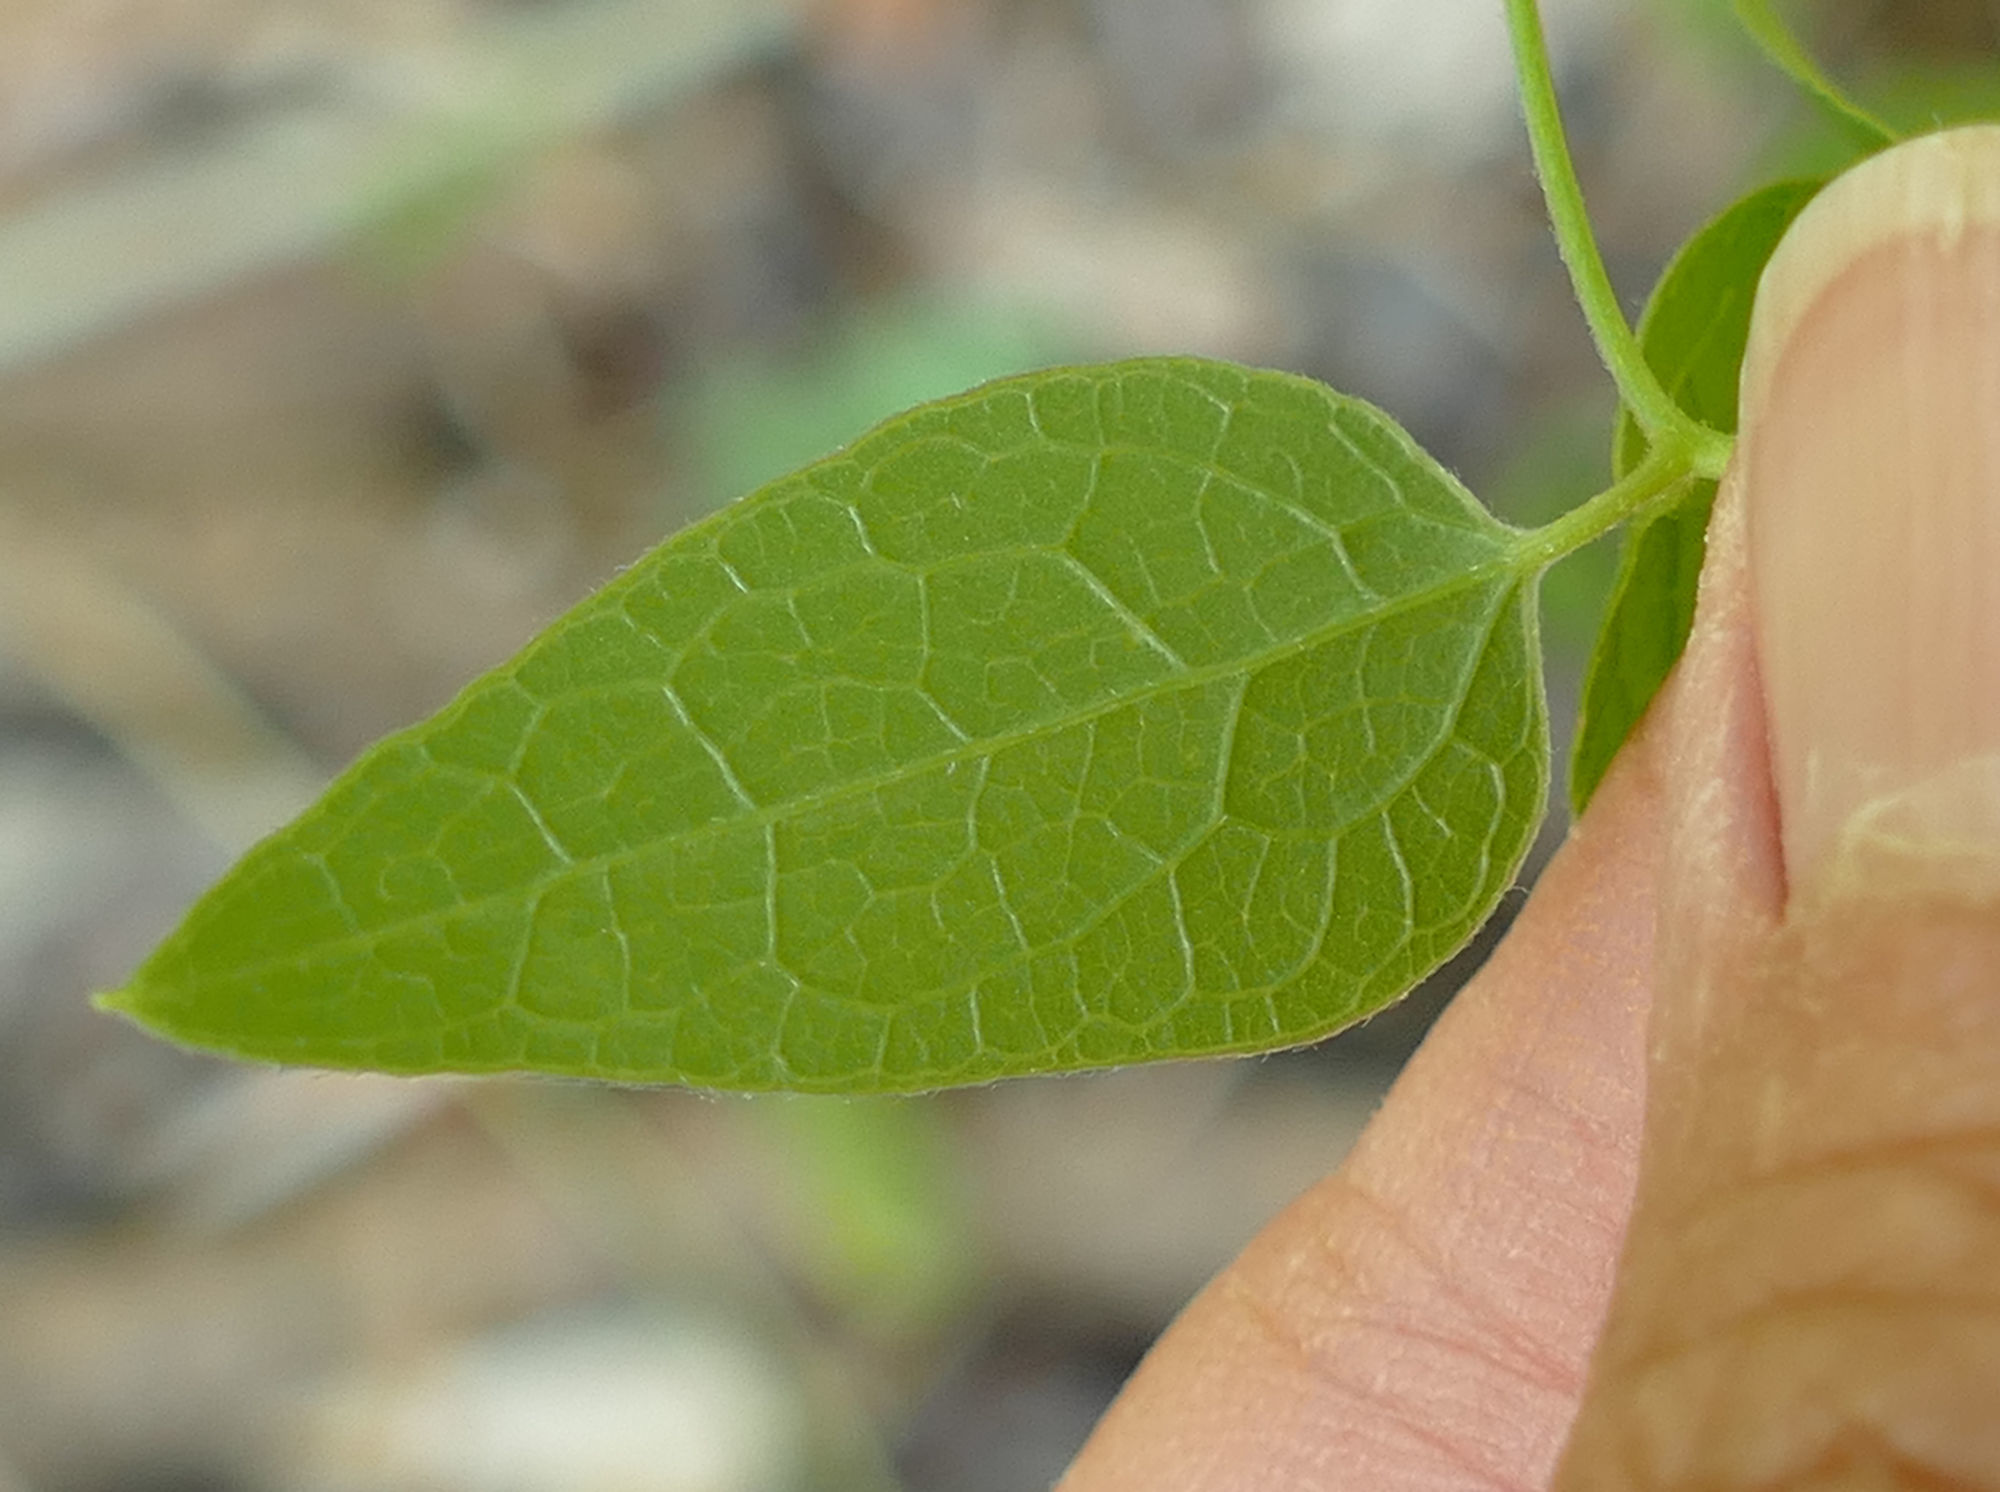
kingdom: Plantae
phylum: Tracheophyta
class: Magnoliopsida
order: Ranunculales
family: Ranunculaceae
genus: Clematis
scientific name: Clematis pitcheri
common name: Bellflower clematis
